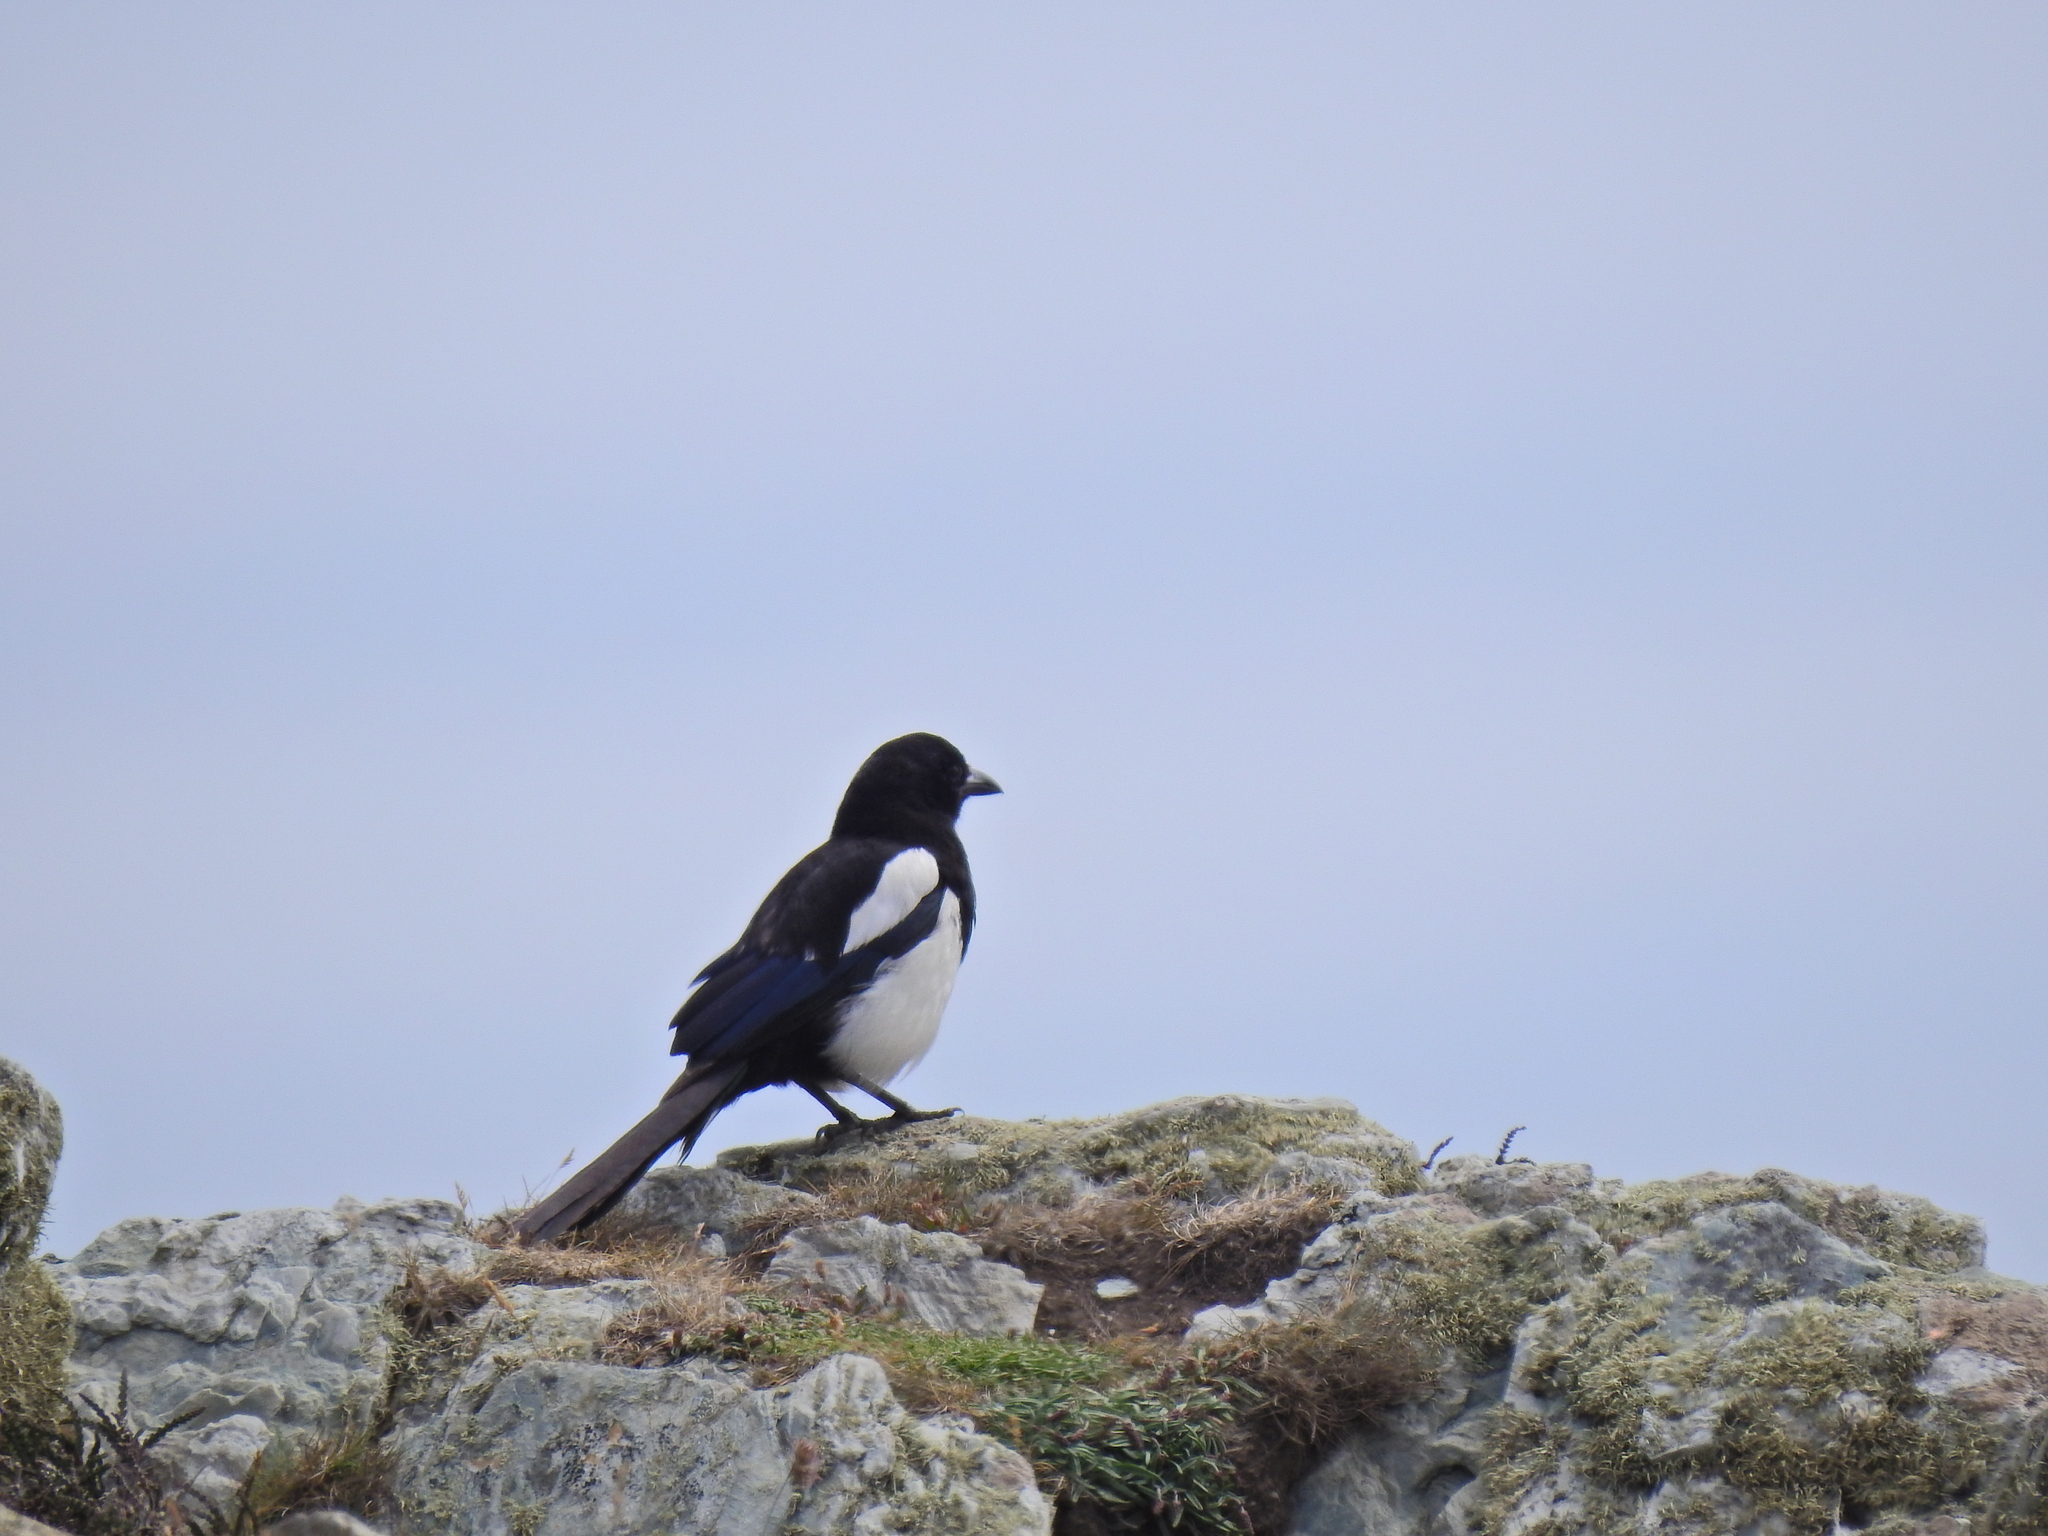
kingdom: Animalia
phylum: Chordata
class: Aves
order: Passeriformes
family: Corvidae
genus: Pica
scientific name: Pica pica
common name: Eurasian magpie
